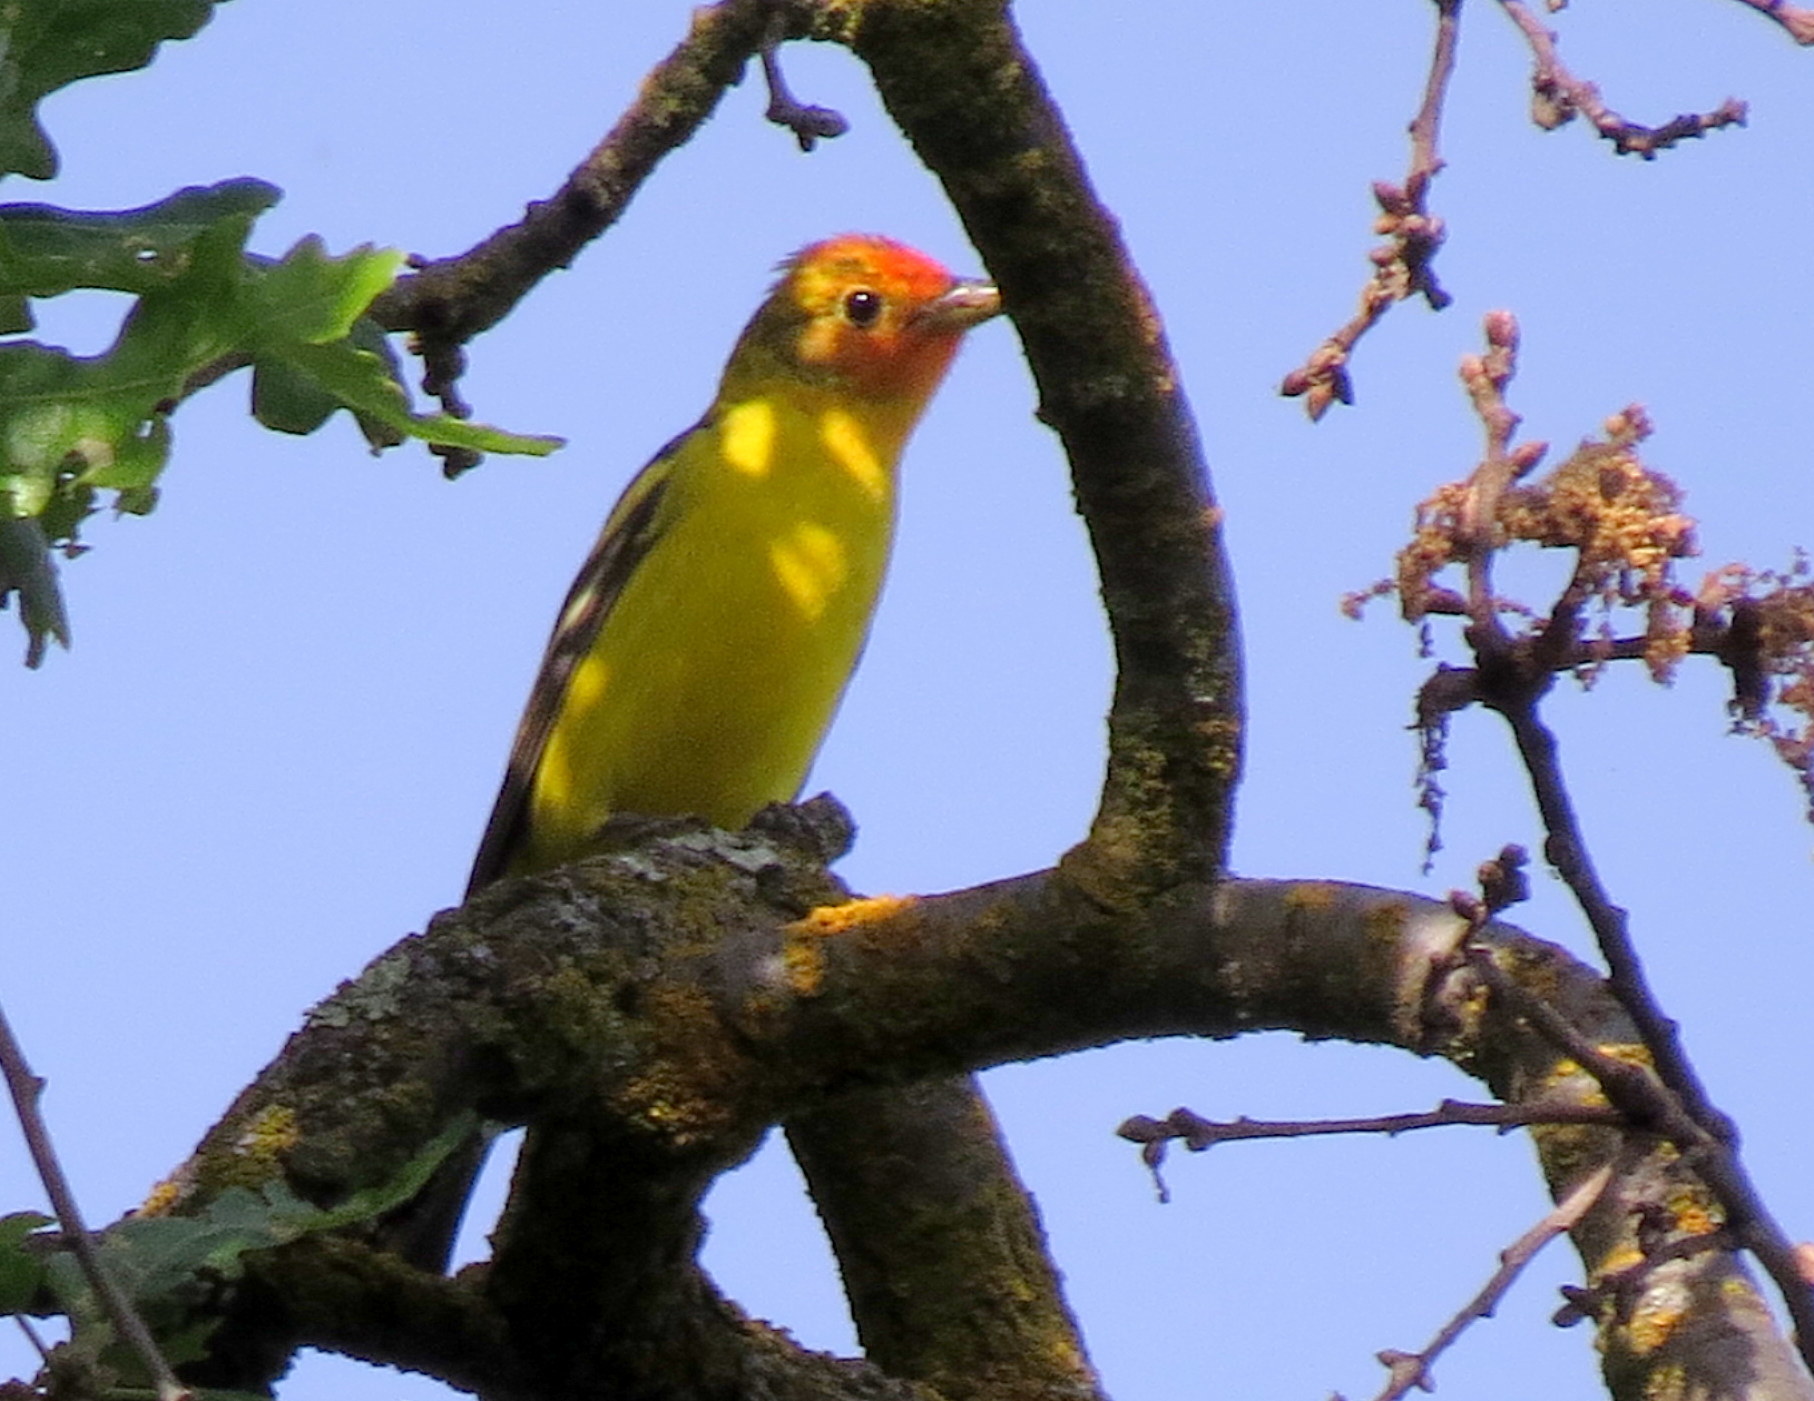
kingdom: Animalia
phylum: Chordata
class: Aves
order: Passeriformes
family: Cardinalidae
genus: Piranga
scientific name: Piranga ludoviciana
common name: Western tanager
